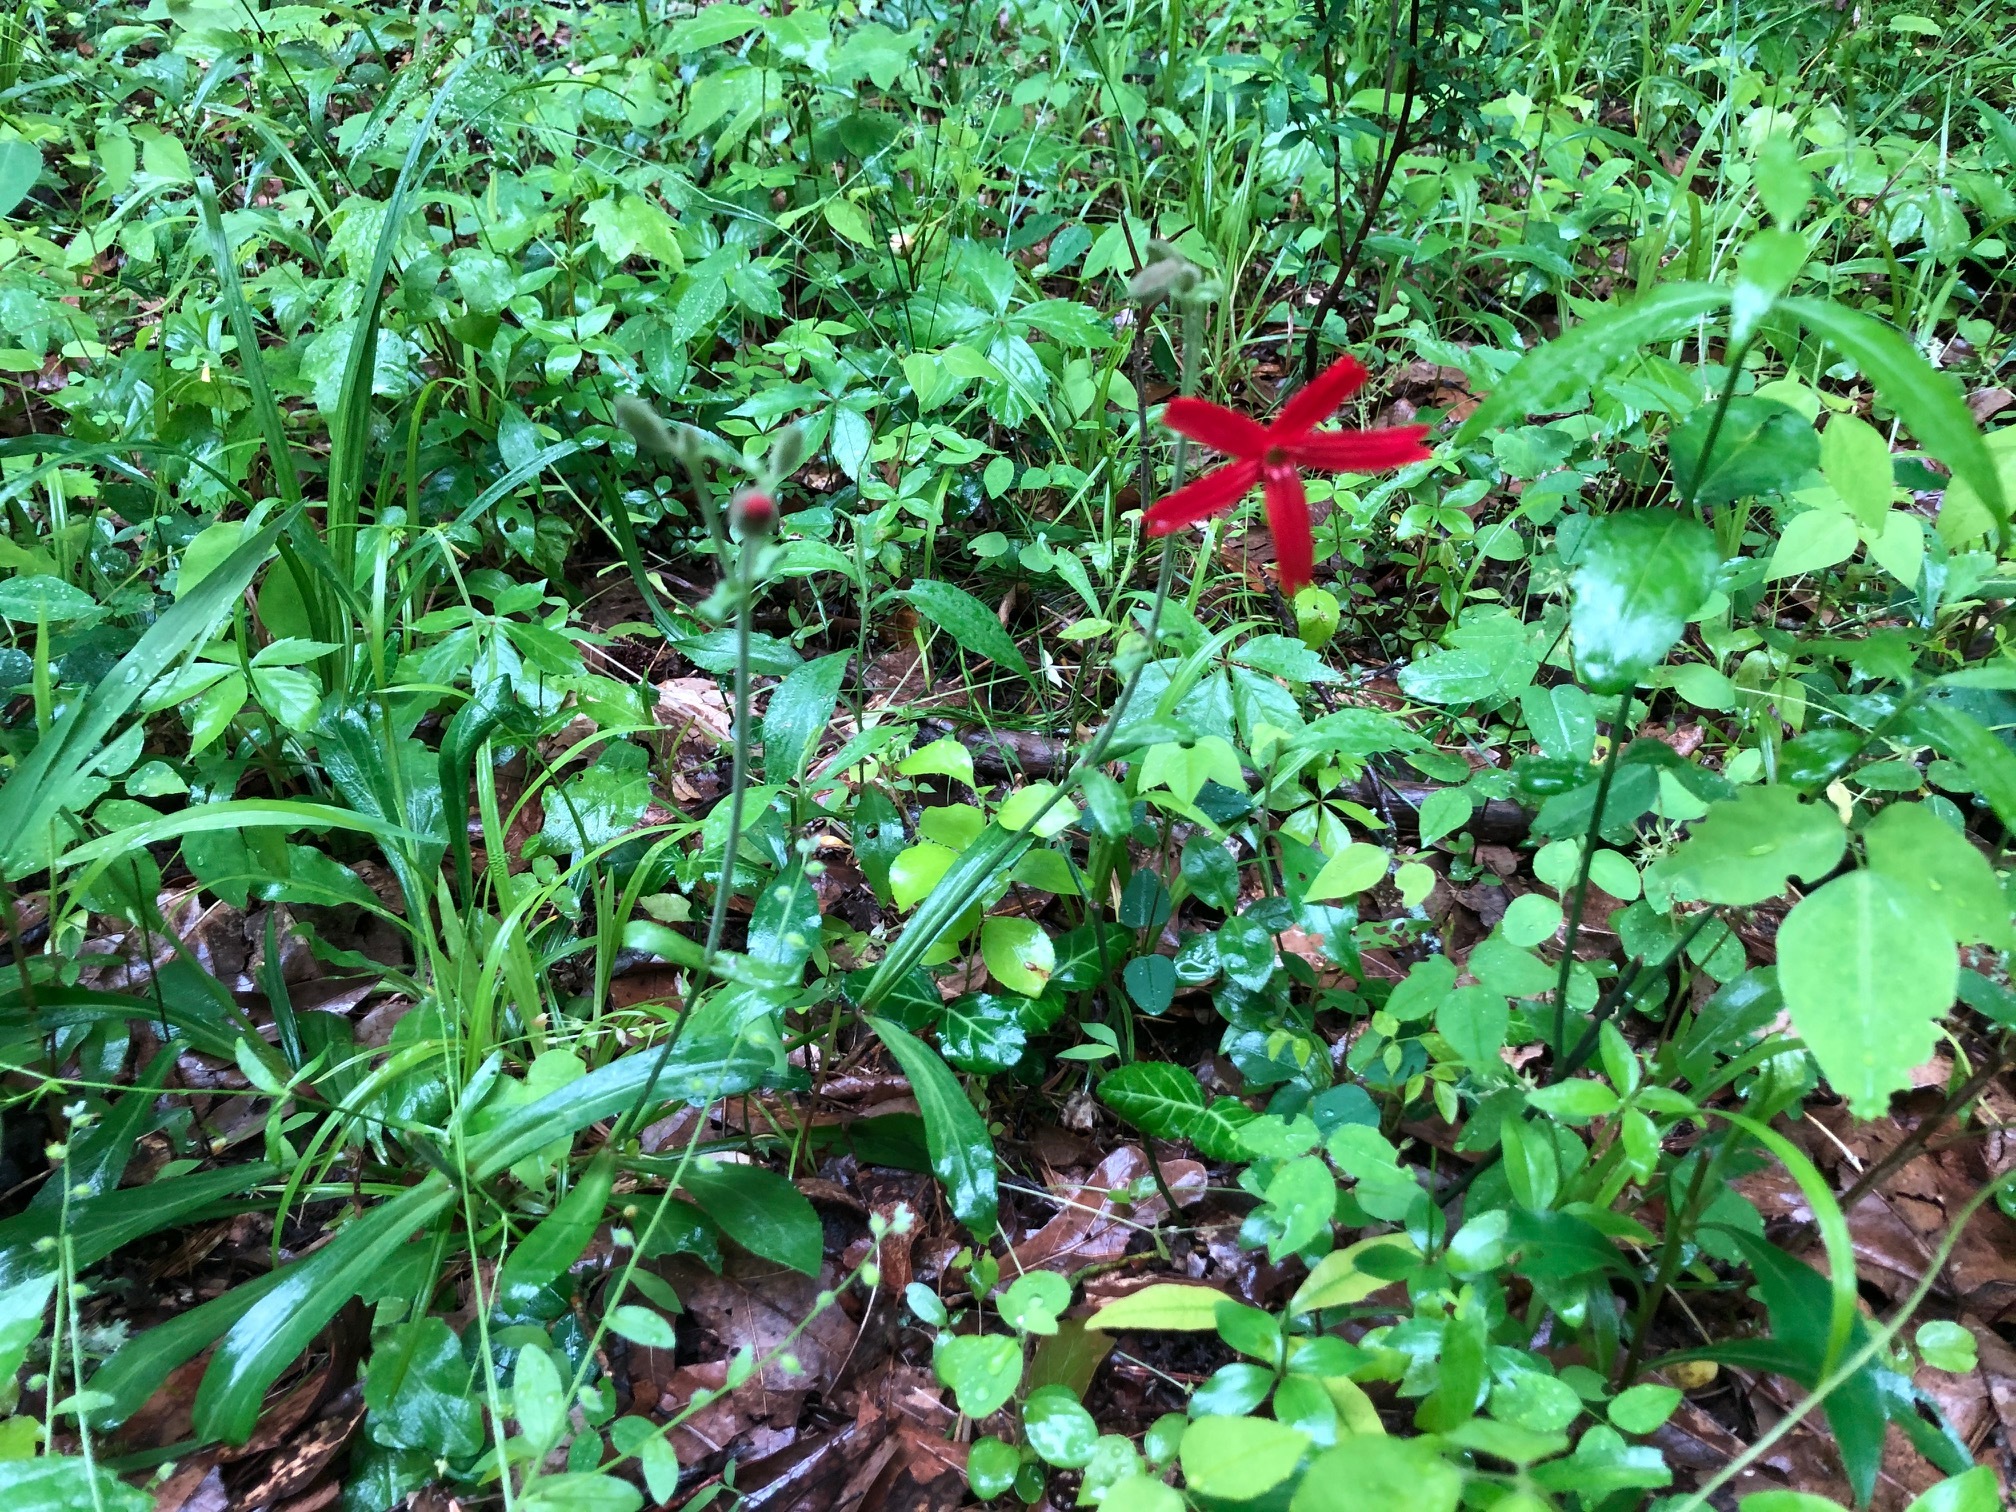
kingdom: Plantae
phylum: Tracheophyta
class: Magnoliopsida
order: Caryophyllales
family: Caryophyllaceae
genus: Silene
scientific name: Silene virginica
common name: Fire-pink
